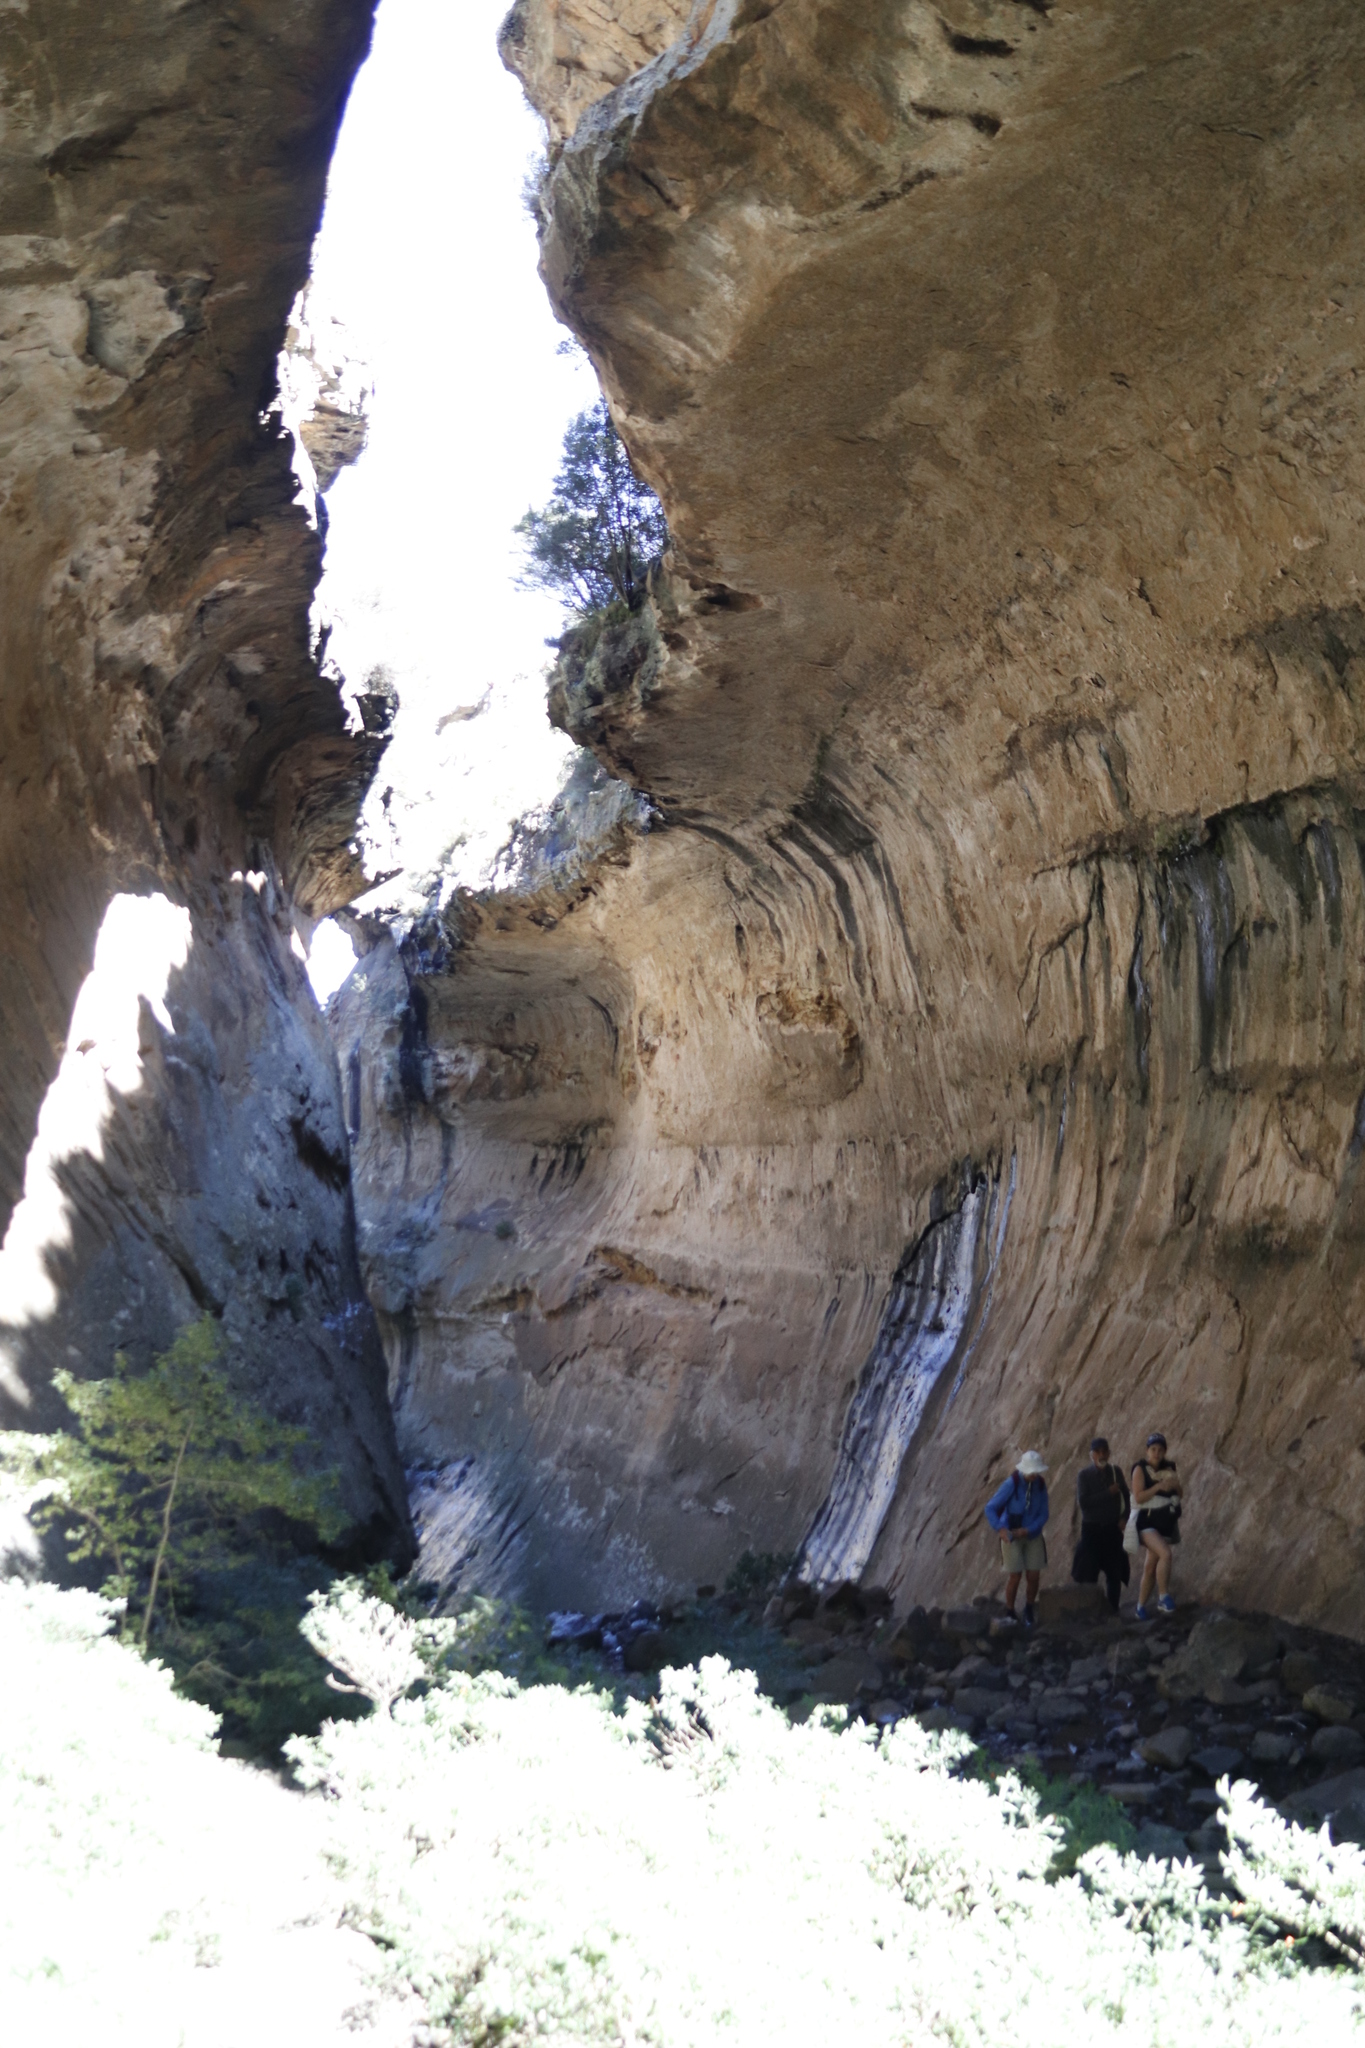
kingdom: Plantae
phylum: Tracheophyta
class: Magnoliopsida
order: Malpighiales
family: Achariaceae
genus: Kiggelaria
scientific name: Kiggelaria africana
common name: Wild peach
